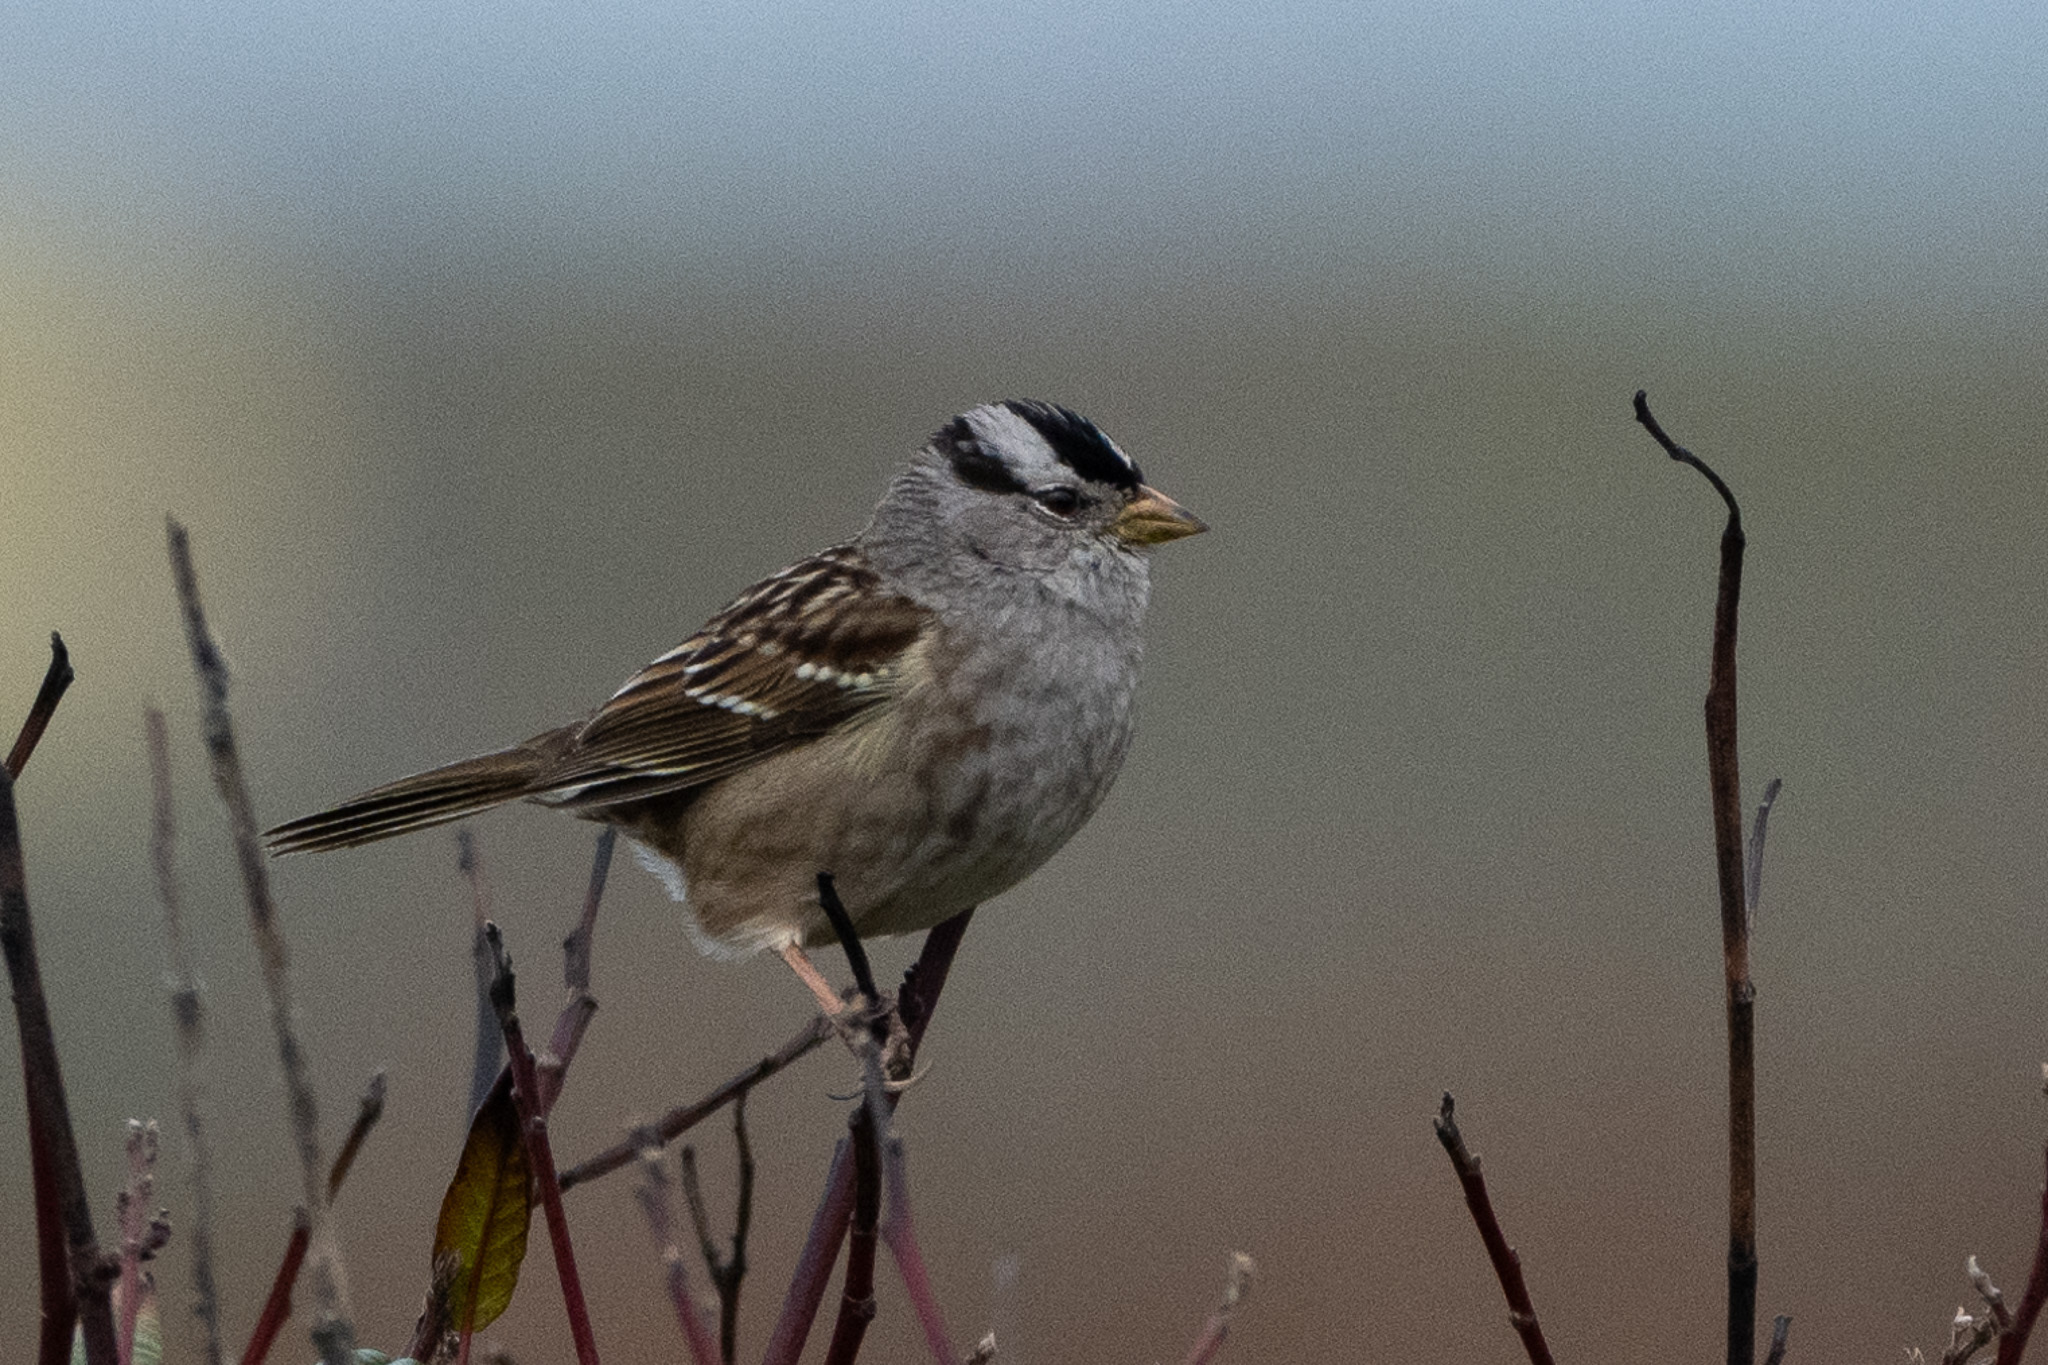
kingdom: Animalia
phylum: Chordata
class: Aves
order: Passeriformes
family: Passerellidae
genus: Zonotrichia
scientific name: Zonotrichia leucophrys
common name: White-crowned sparrow
